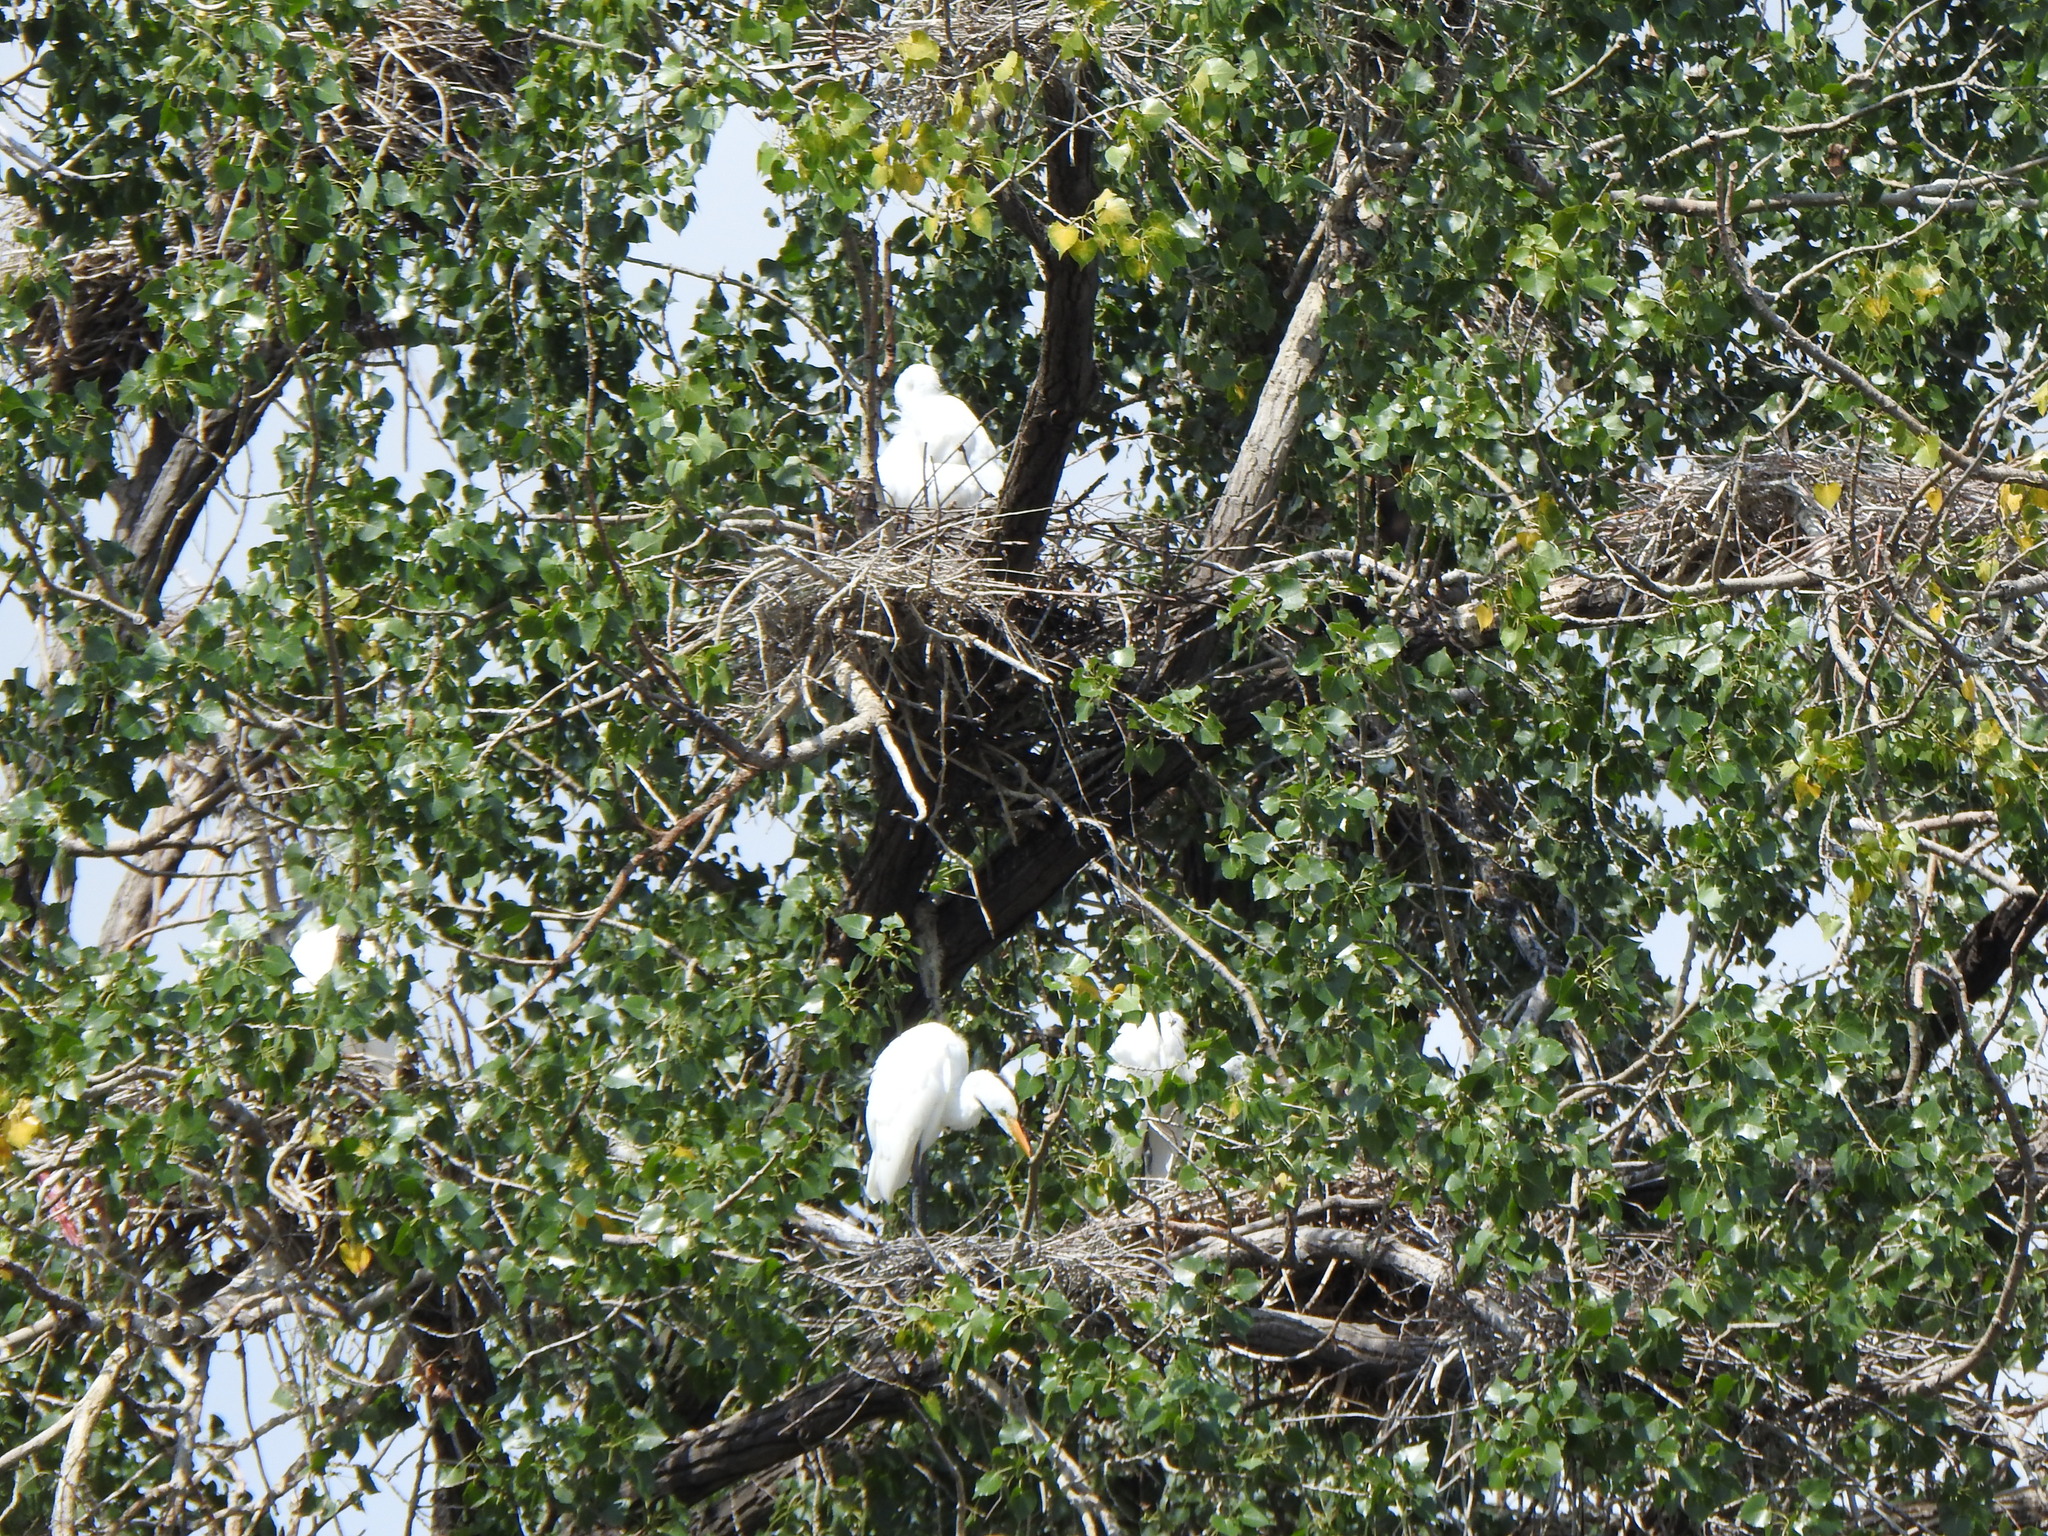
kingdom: Animalia
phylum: Chordata
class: Aves
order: Pelecaniformes
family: Ardeidae
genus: Ardea
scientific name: Ardea alba
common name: Great egret
